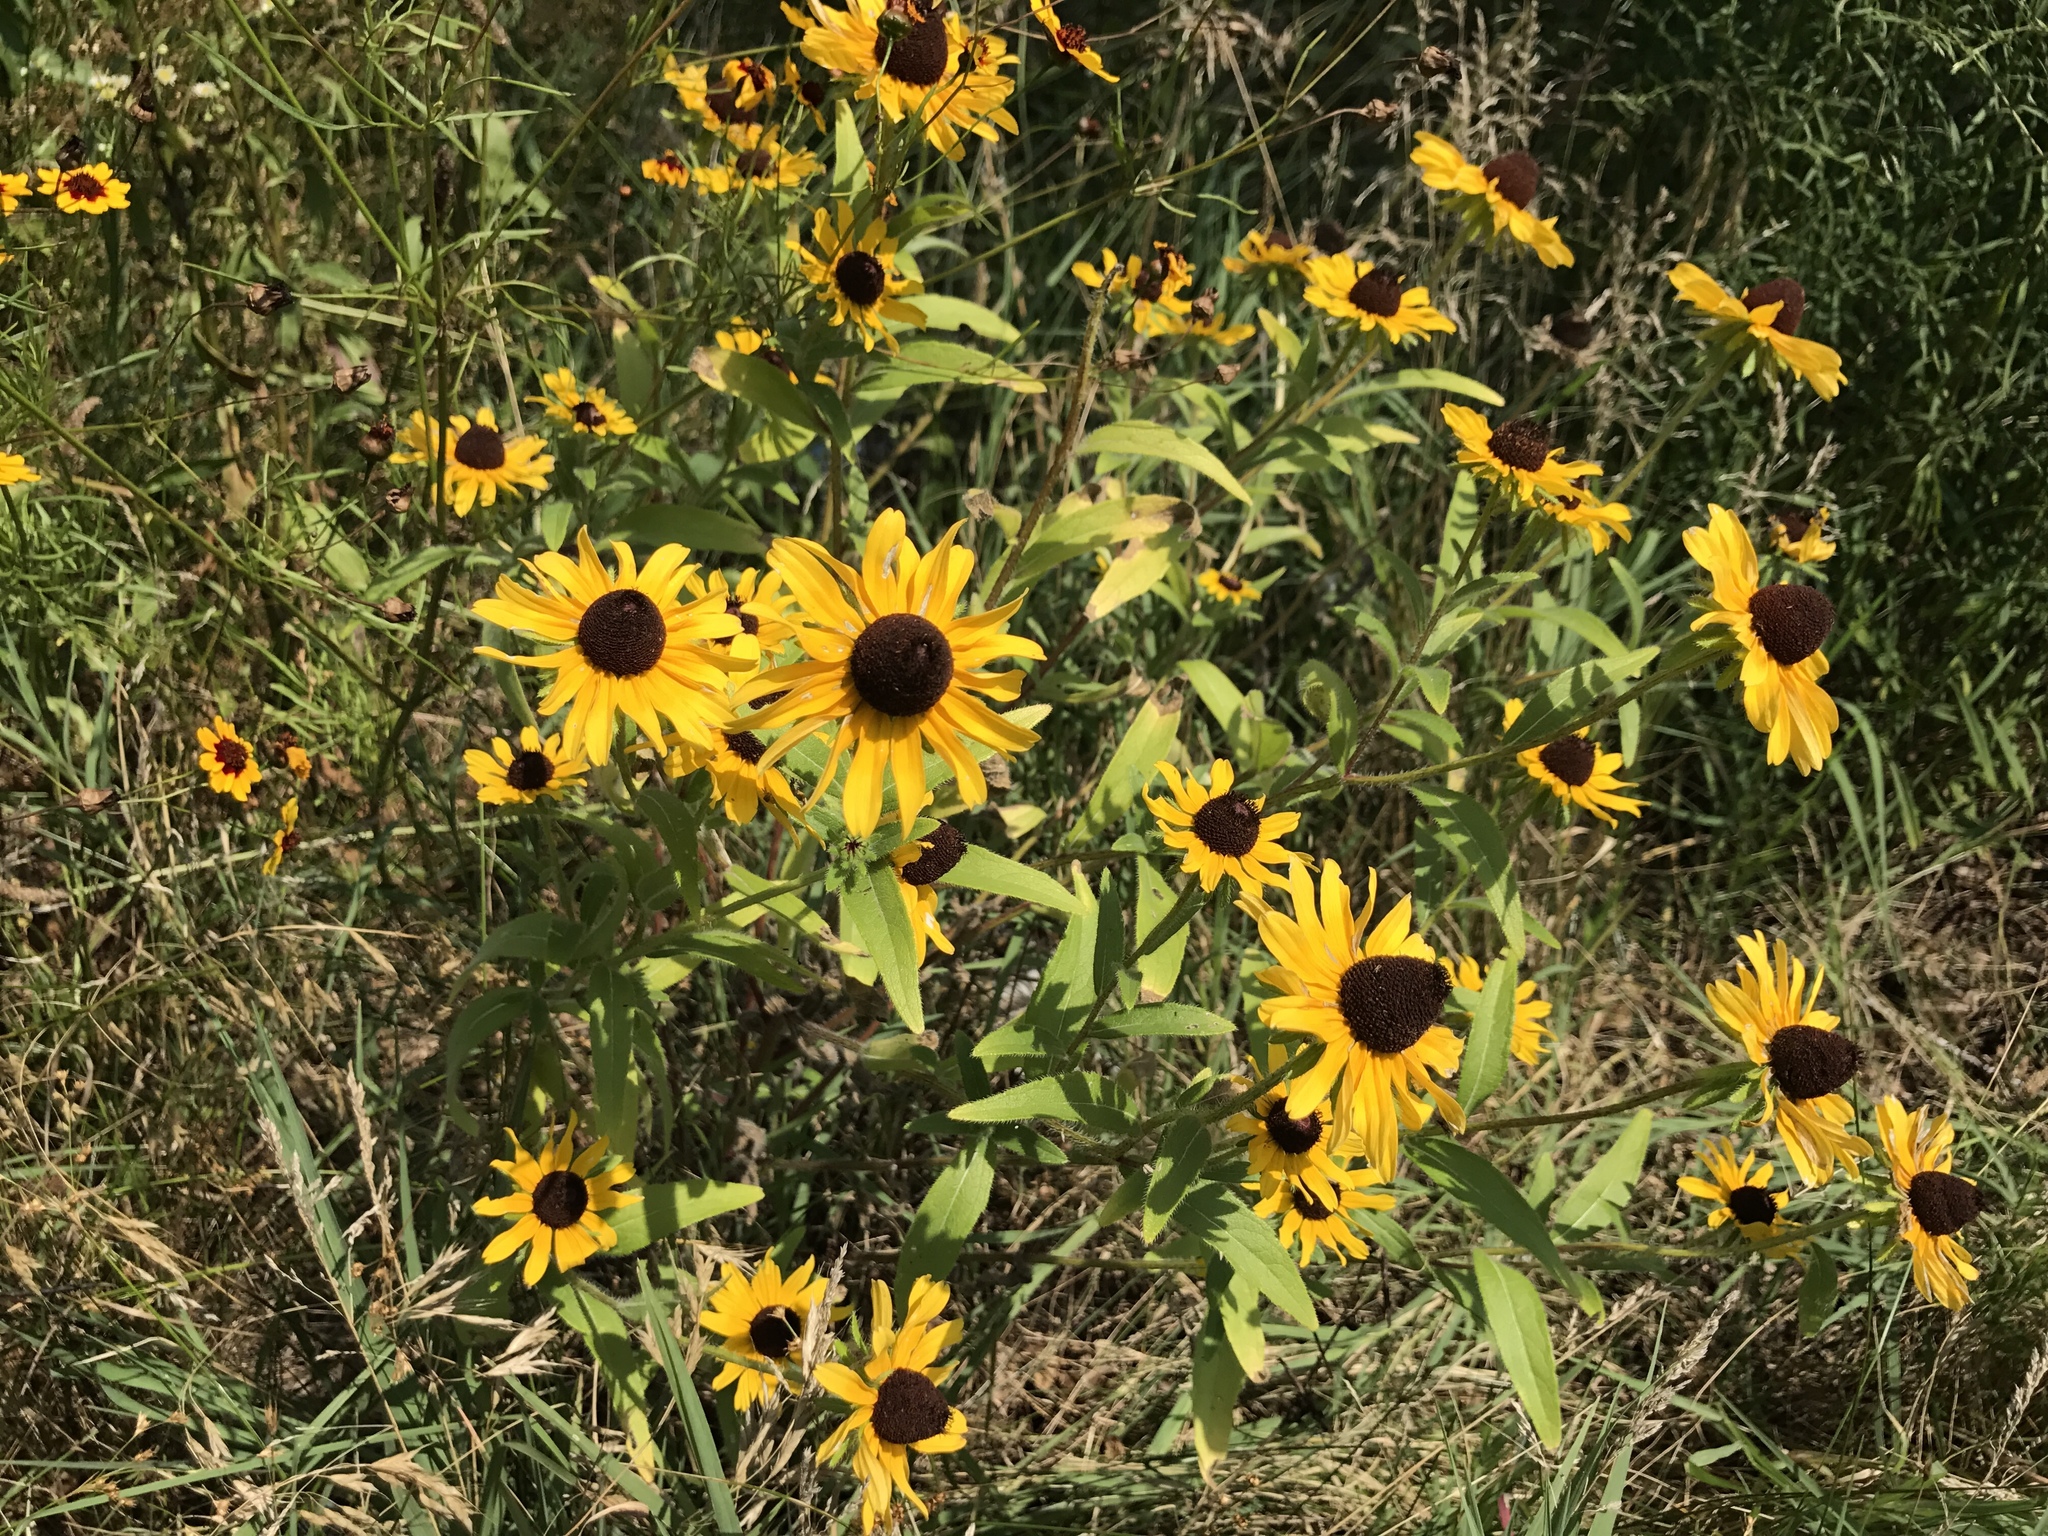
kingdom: Plantae
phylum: Tracheophyta
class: Magnoliopsida
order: Asterales
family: Asteraceae
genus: Rudbeckia
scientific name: Rudbeckia hirta
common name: Black-eyed-susan
